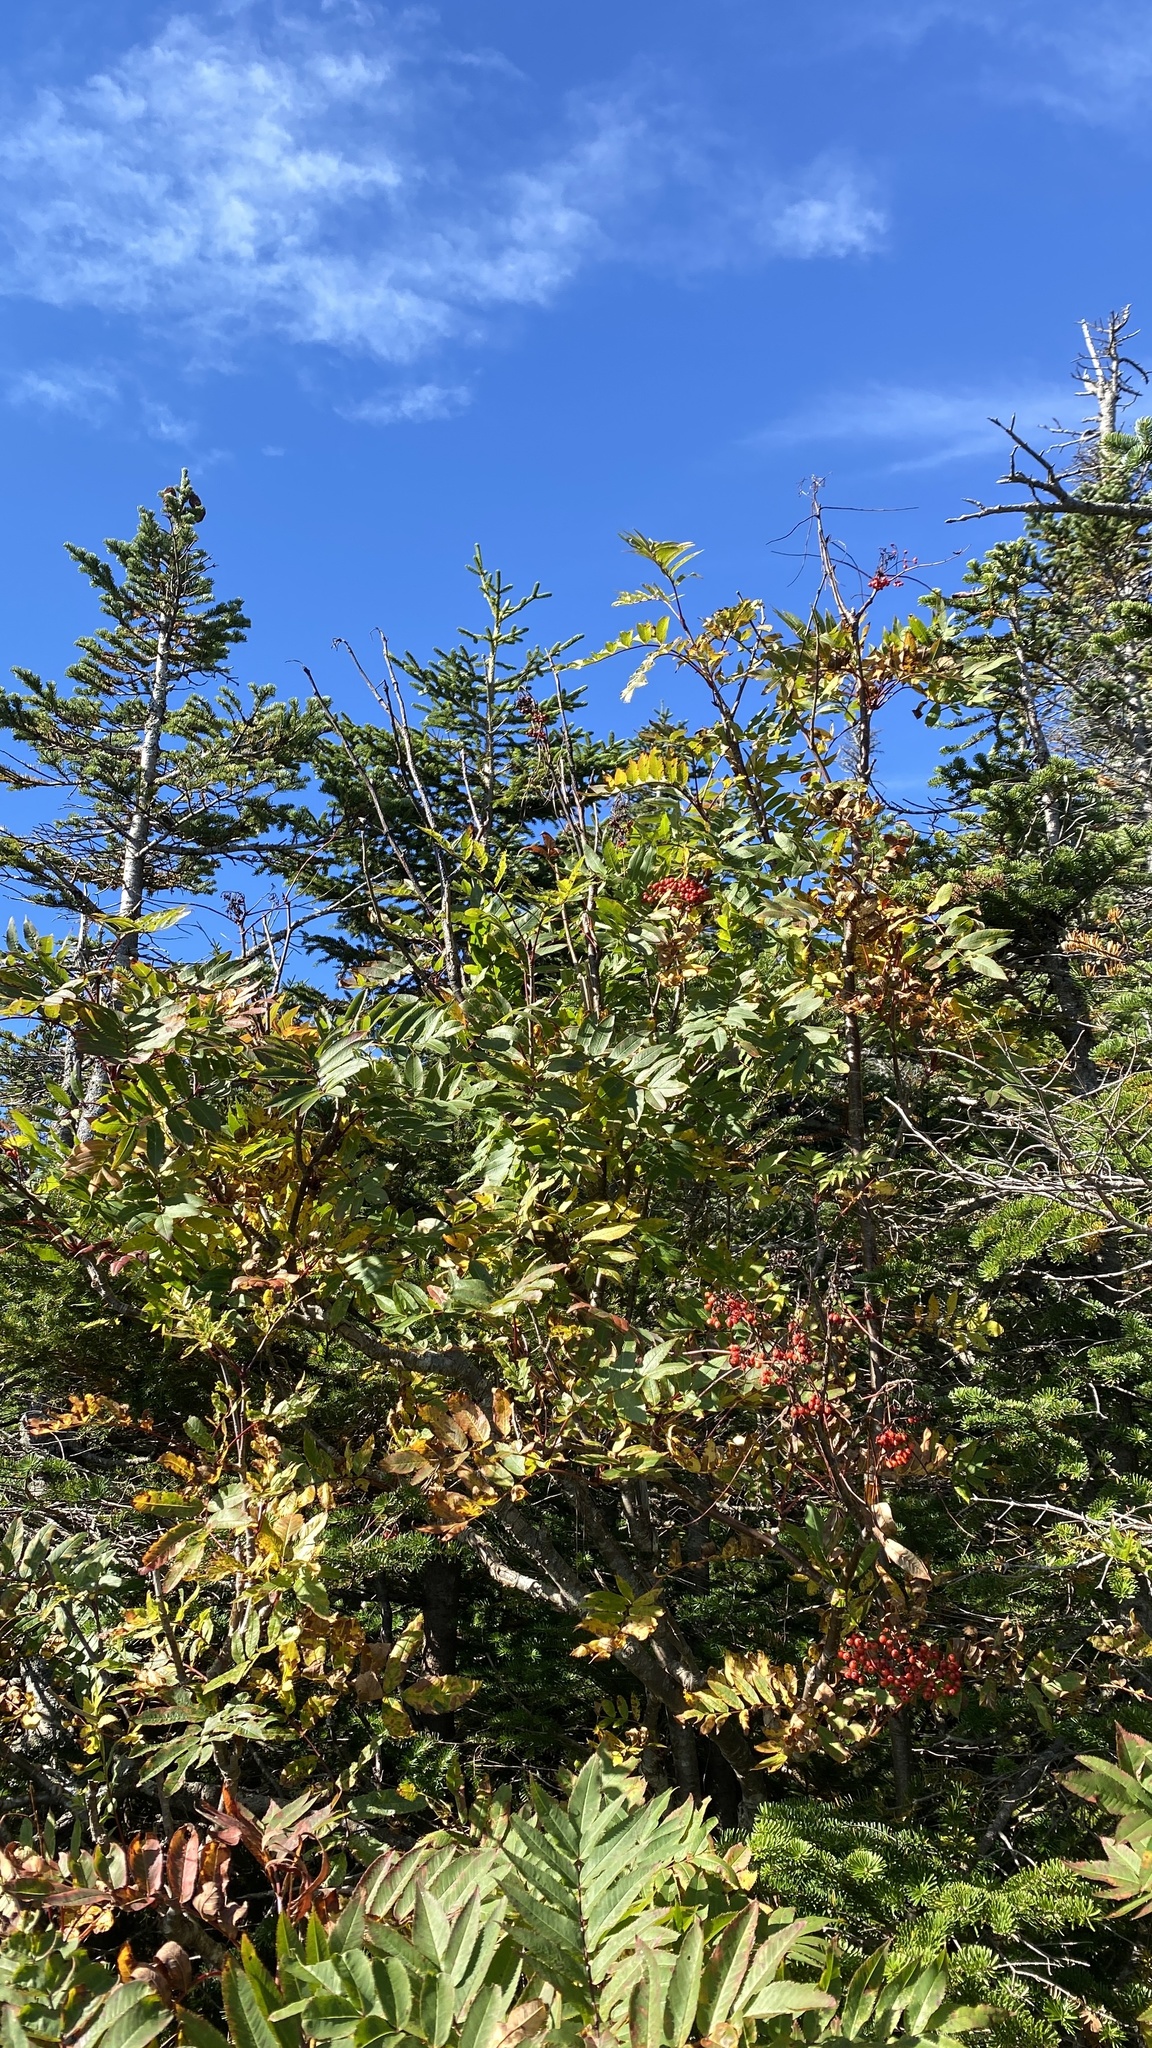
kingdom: Plantae
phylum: Tracheophyta
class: Magnoliopsida
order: Rosales
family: Rosaceae
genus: Sorbus
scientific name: Sorbus americana
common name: American mountain-ash
